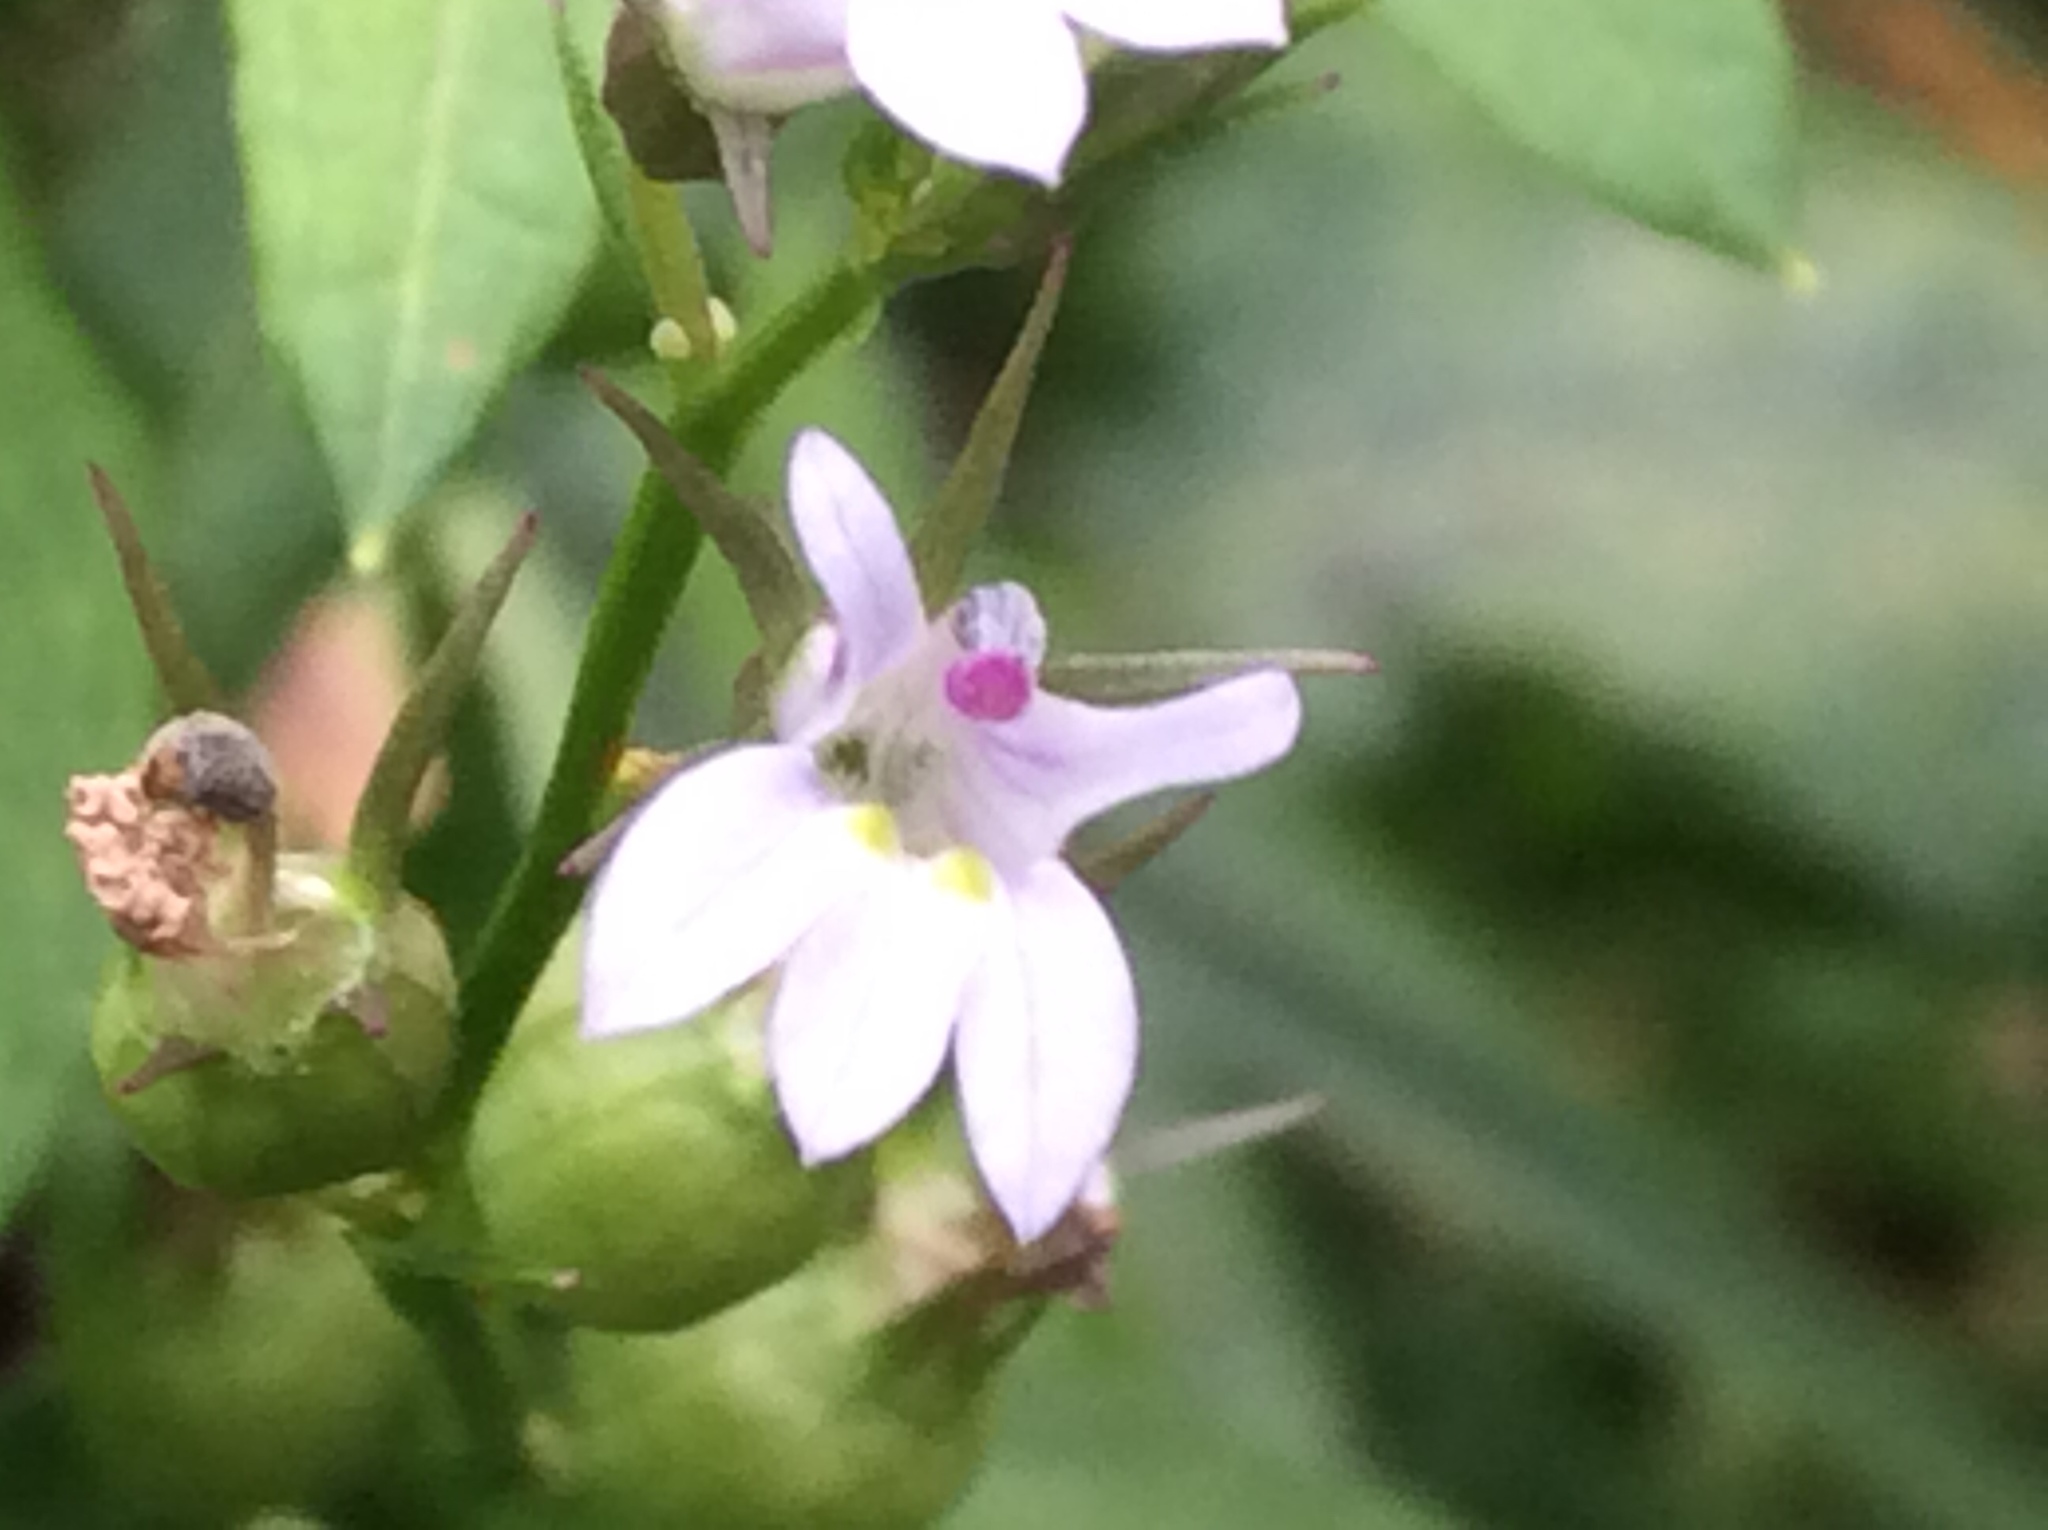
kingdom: Plantae
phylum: Tracheophyta
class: Magnoliopsida
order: Asterales
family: Campanulaceae
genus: Lobelia
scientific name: Lobelia inflata
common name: Indian tobacco
